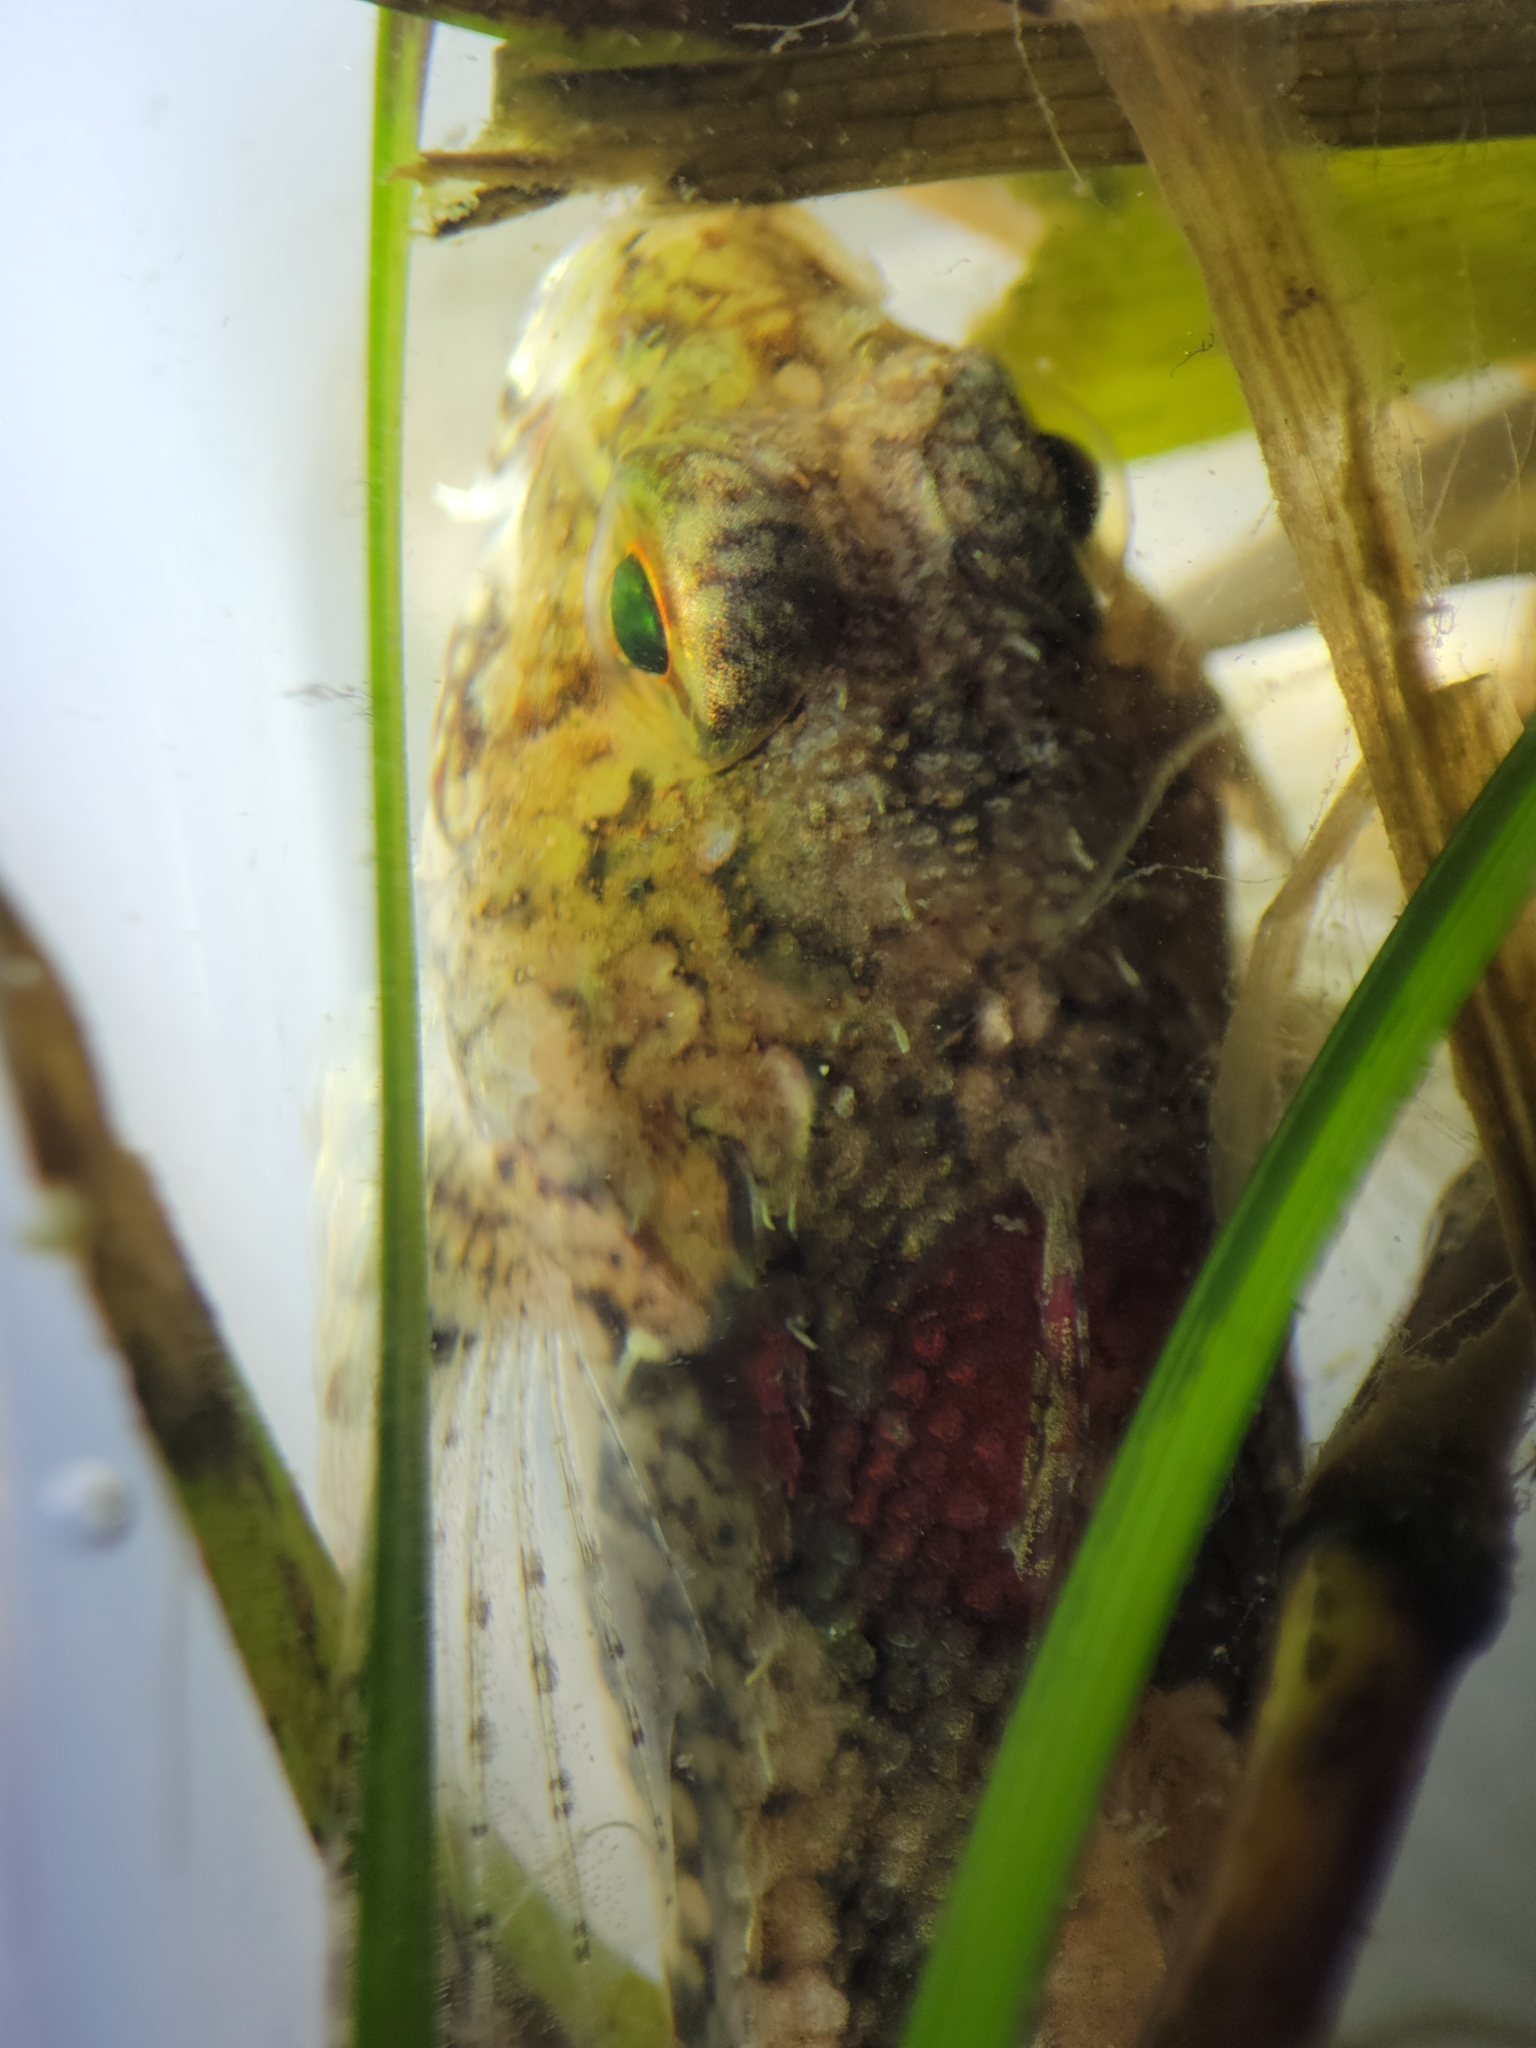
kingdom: Animalia
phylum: Chordata
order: Scorpaeniformes
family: Cottidae
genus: Orthonopias
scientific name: Orthonopias triacis
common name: Snubnose sculpin
